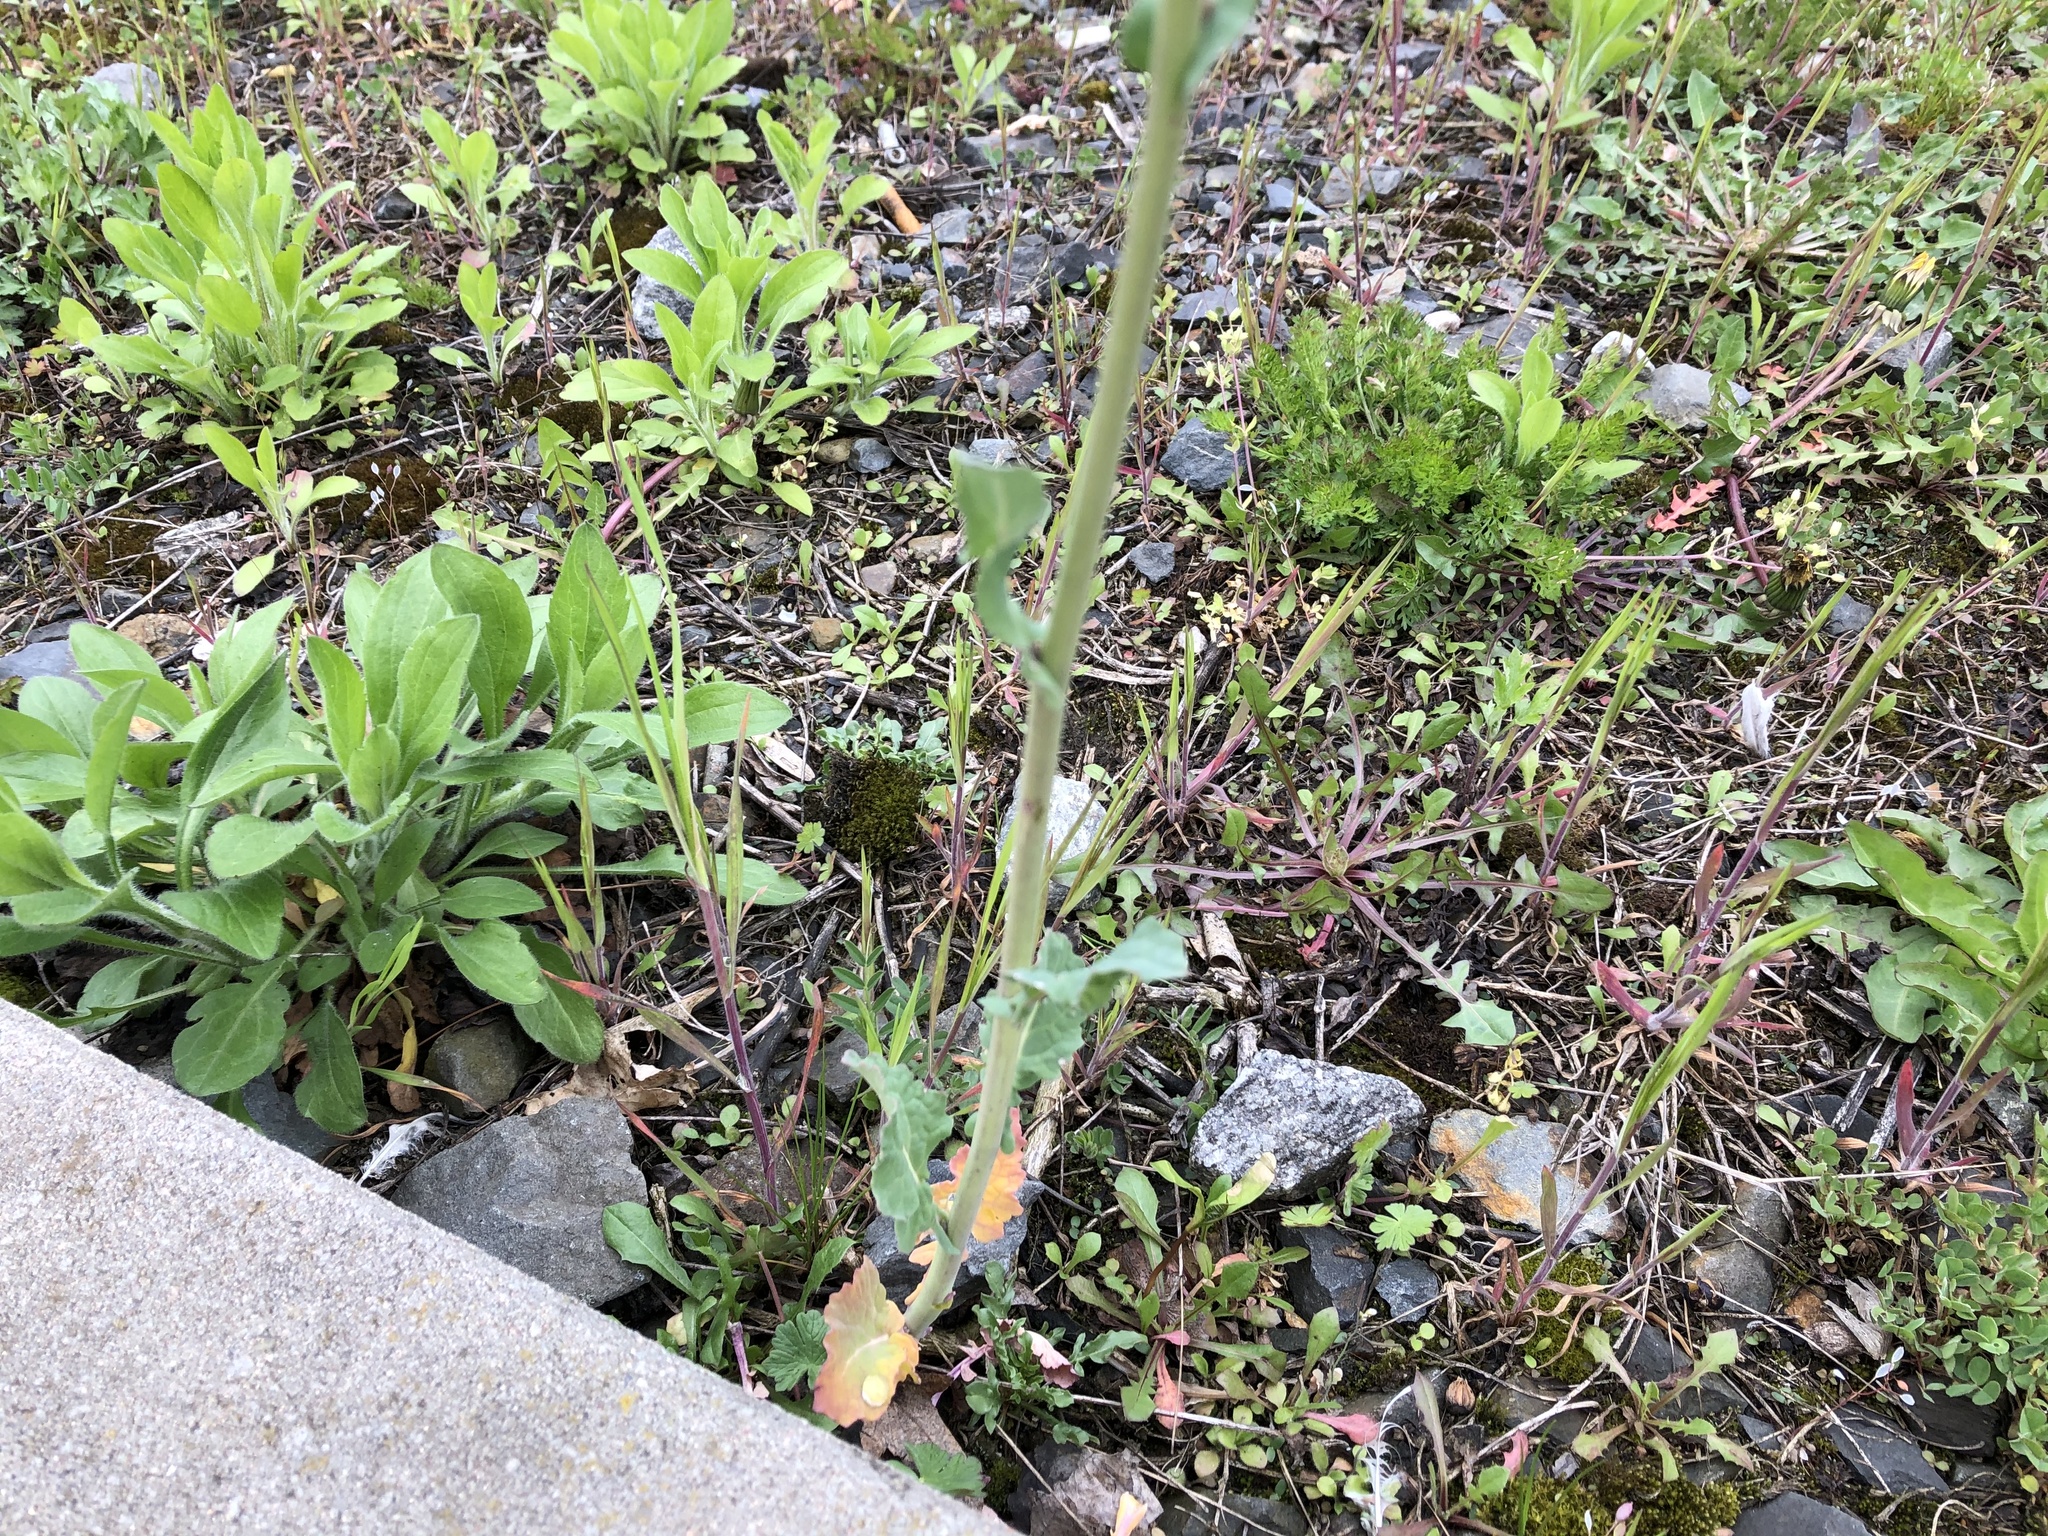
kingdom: Plantae
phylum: Tracheophyta
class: Magnoliopsida
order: Brassicales
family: Brassicaceae
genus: Brassica
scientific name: Brassica napus
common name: Rape
